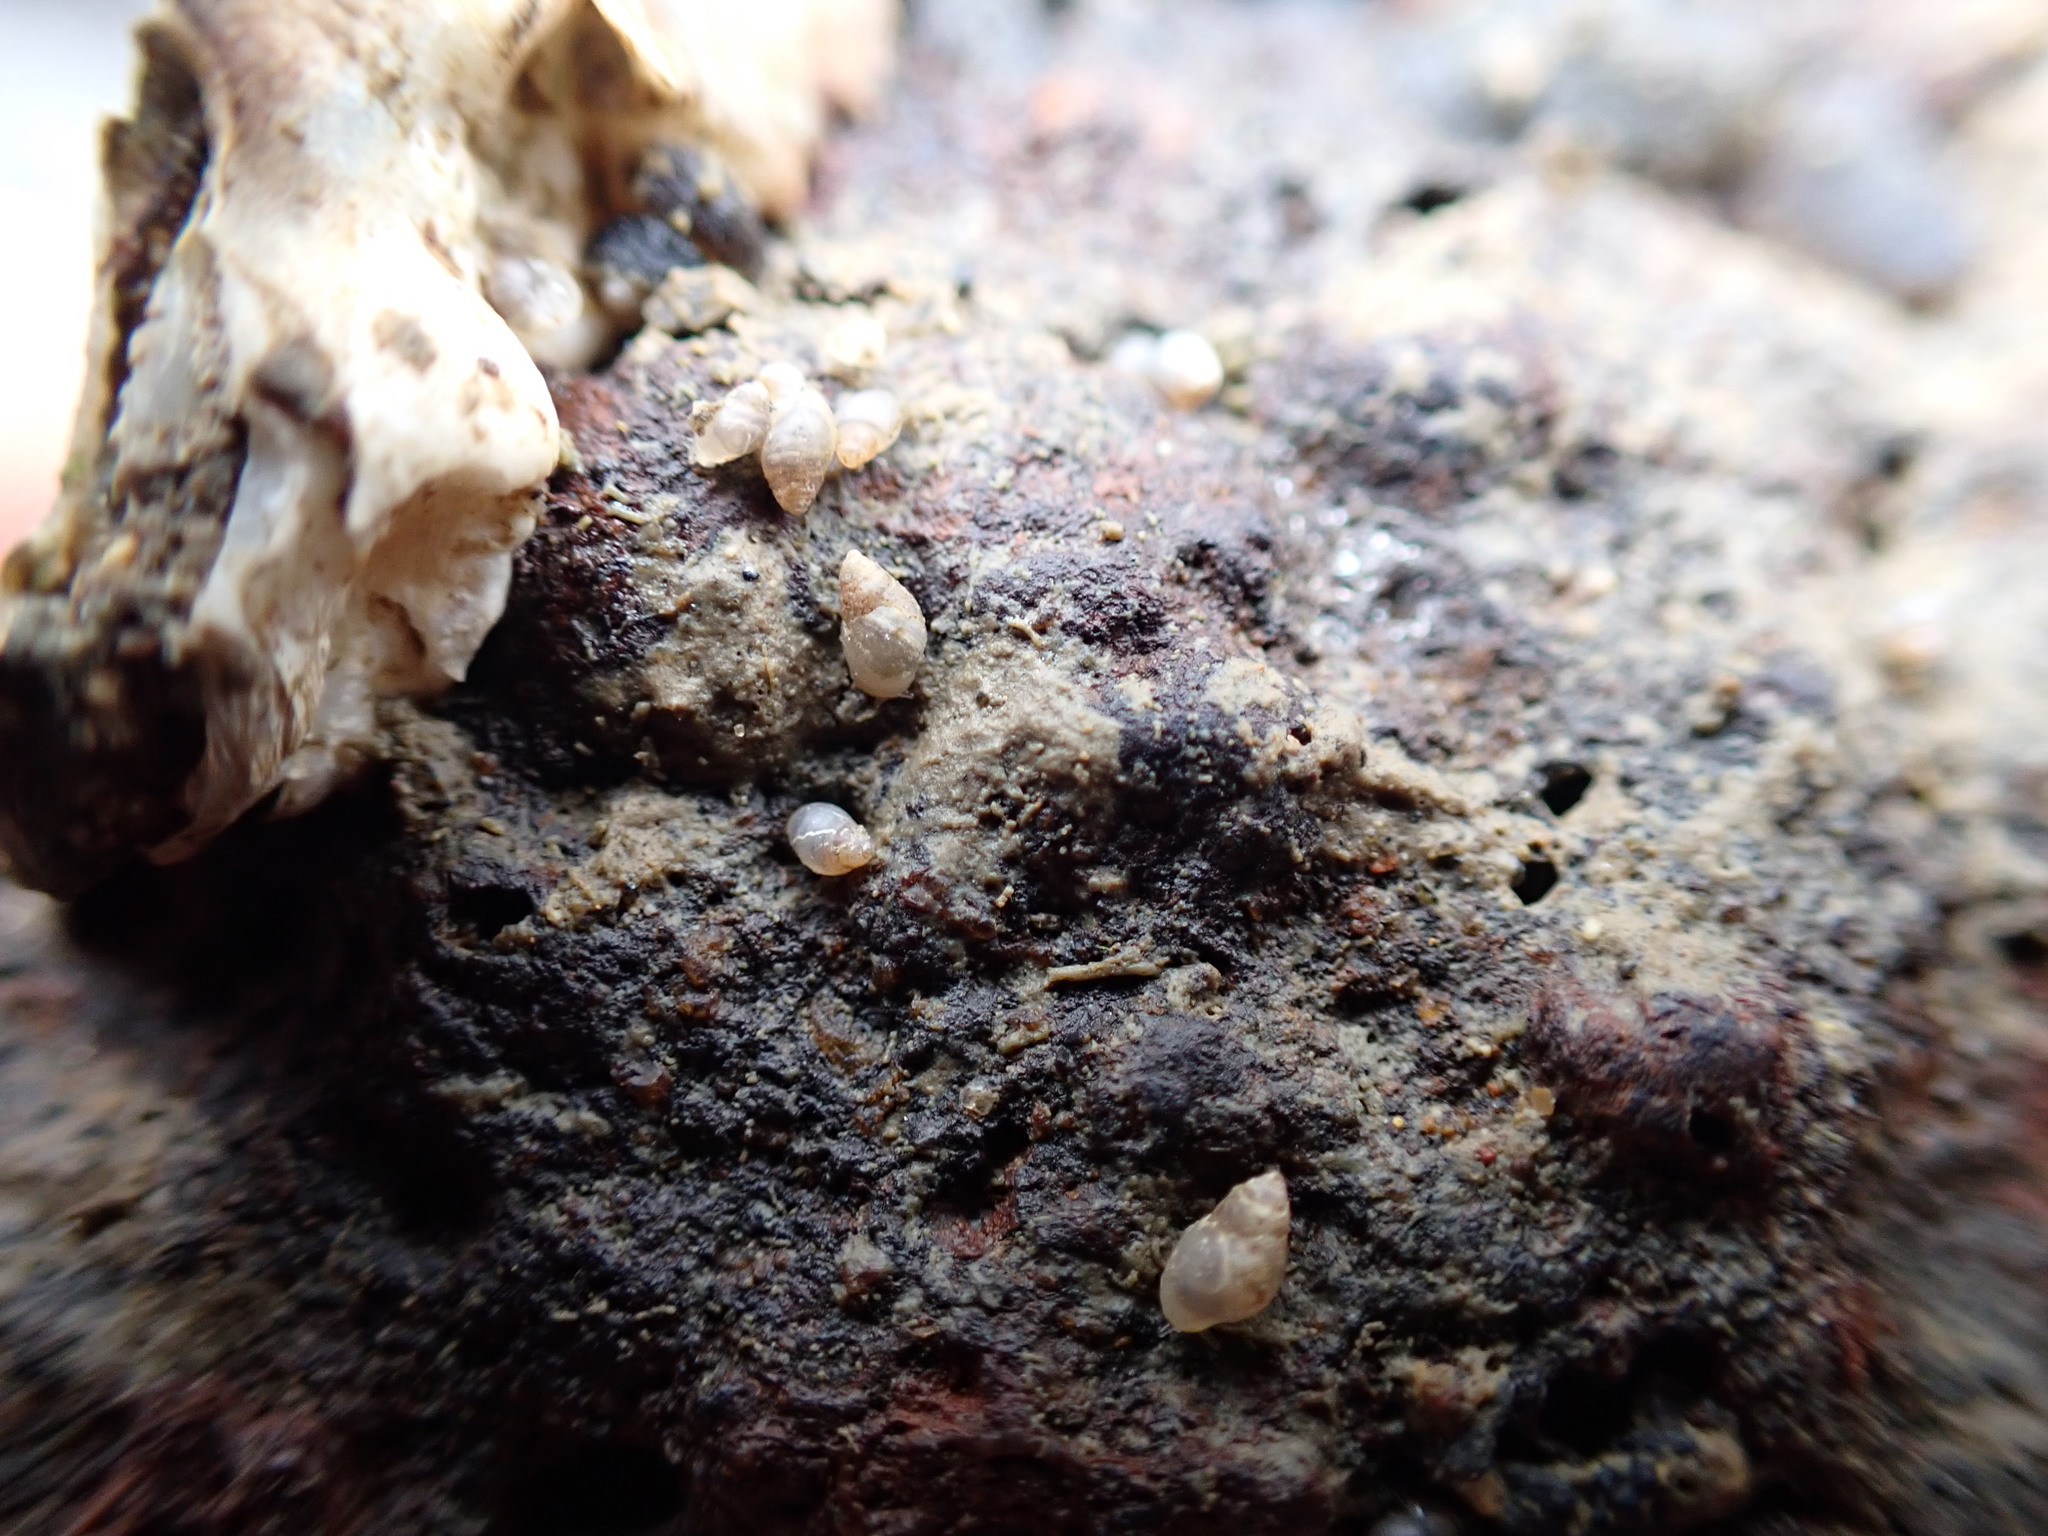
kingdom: Animalia
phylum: Mollusca
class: Gastropoda
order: Ellobiida
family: Ellobiidae
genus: Leuconopsis
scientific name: Leuconopsis obsoleta
